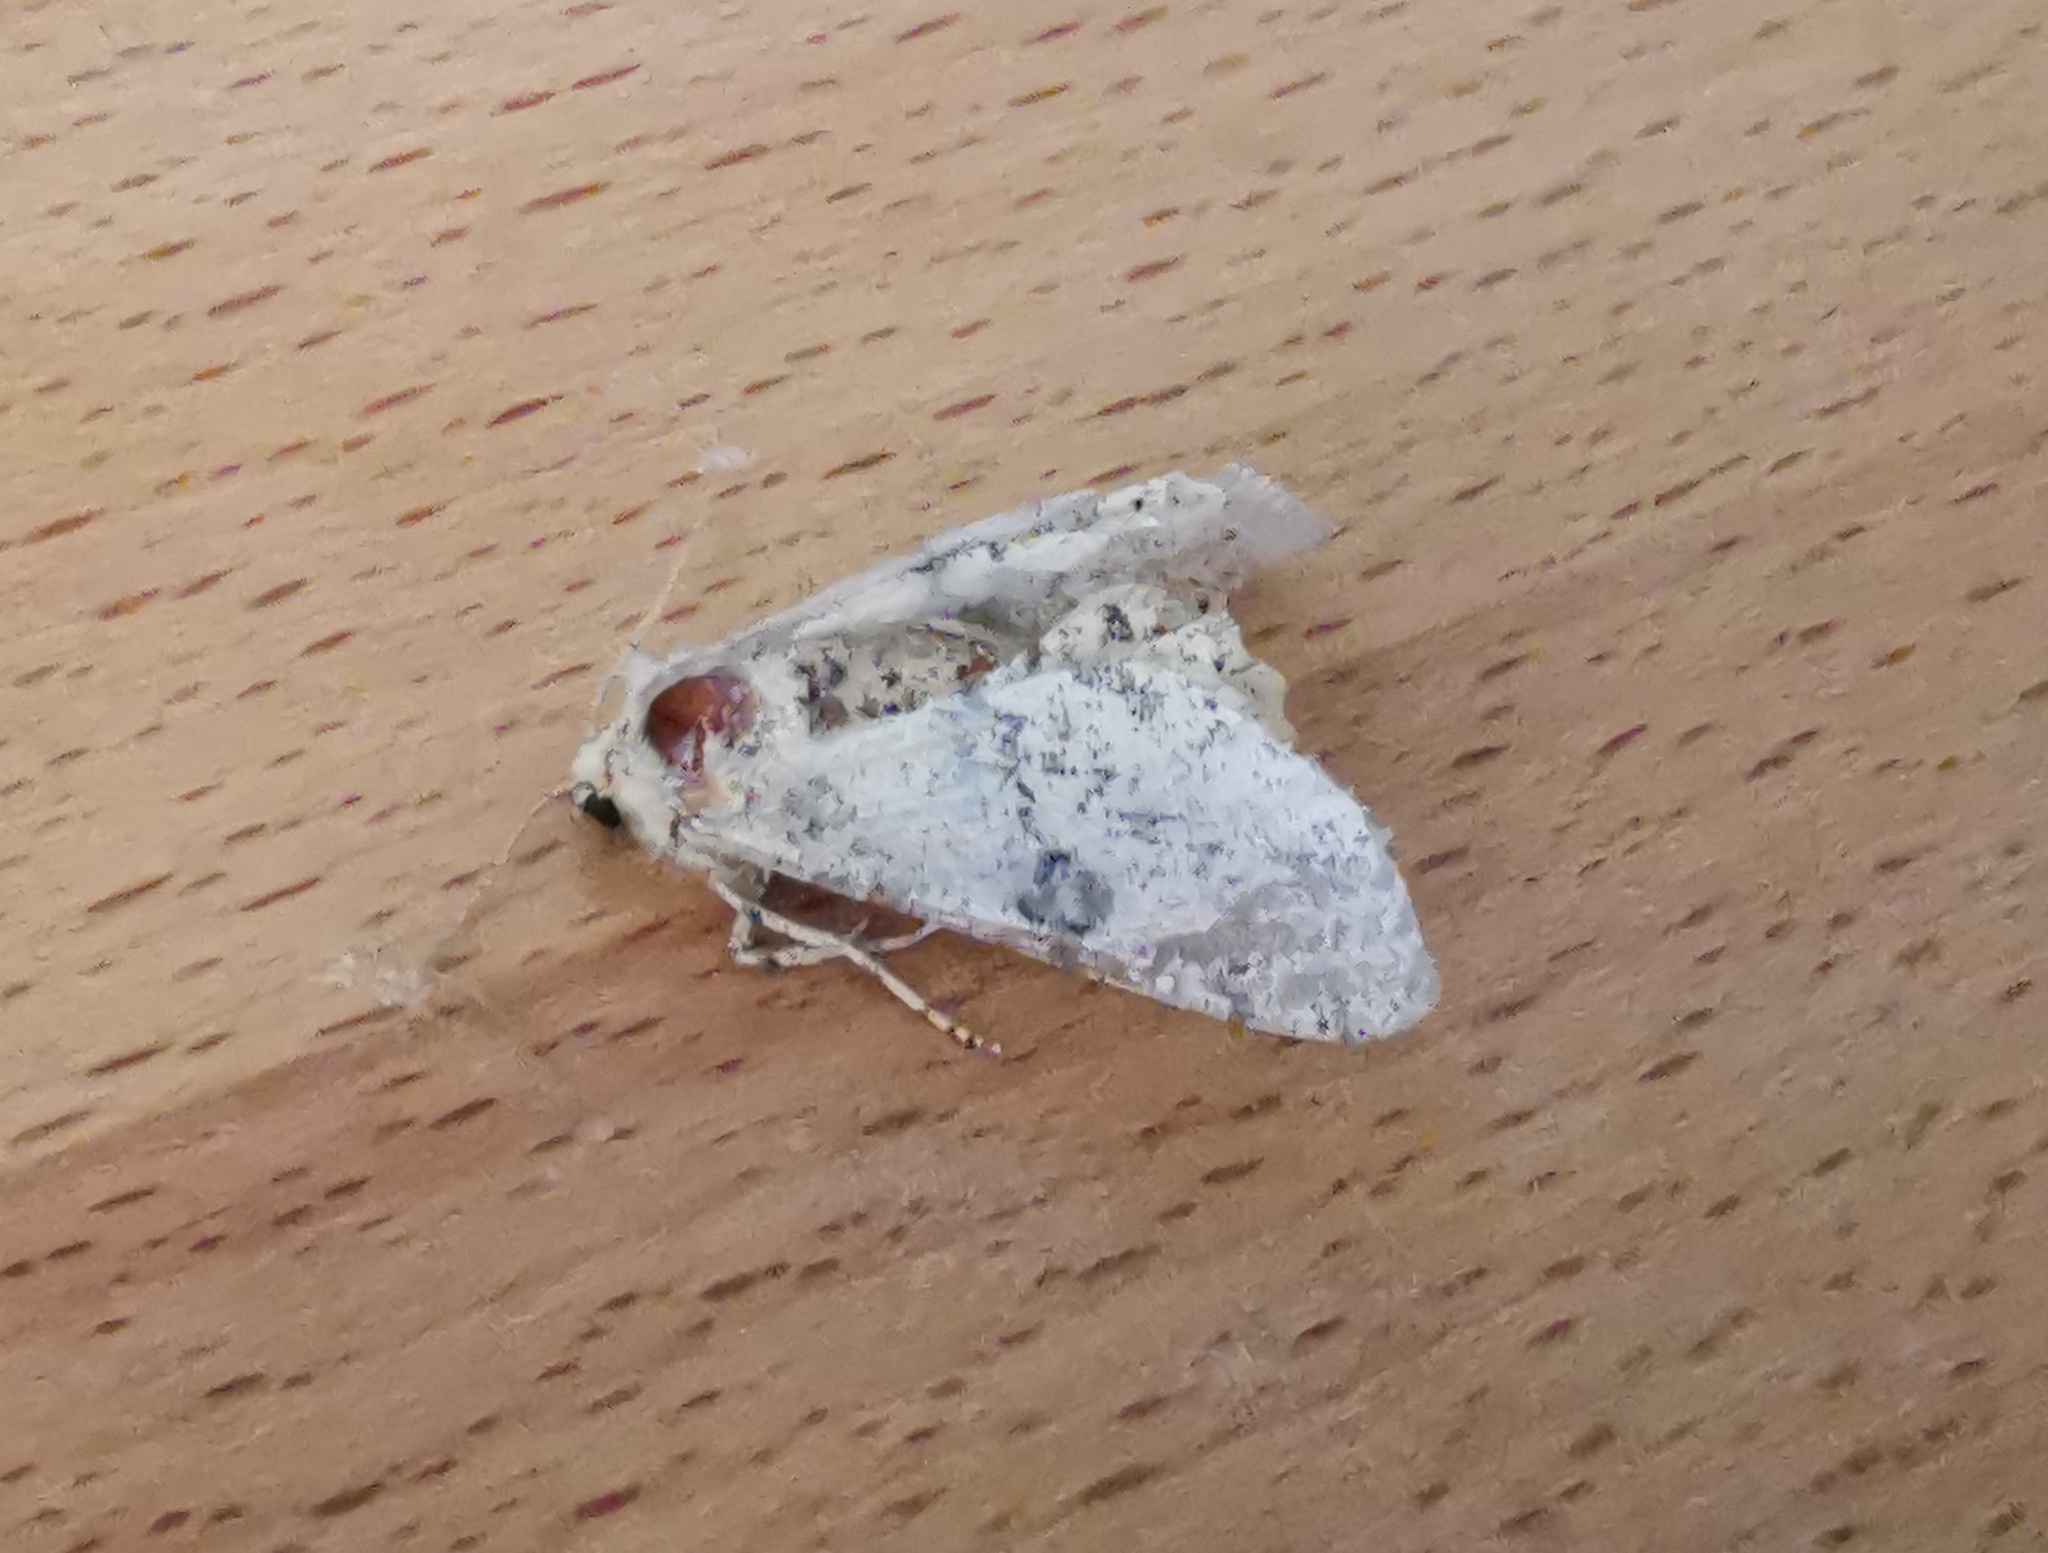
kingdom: Animalia
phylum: Arthropoda
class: Insecta
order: Lepidoptera
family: Geometridae
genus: Ascotis
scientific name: Ascotis selenaria
